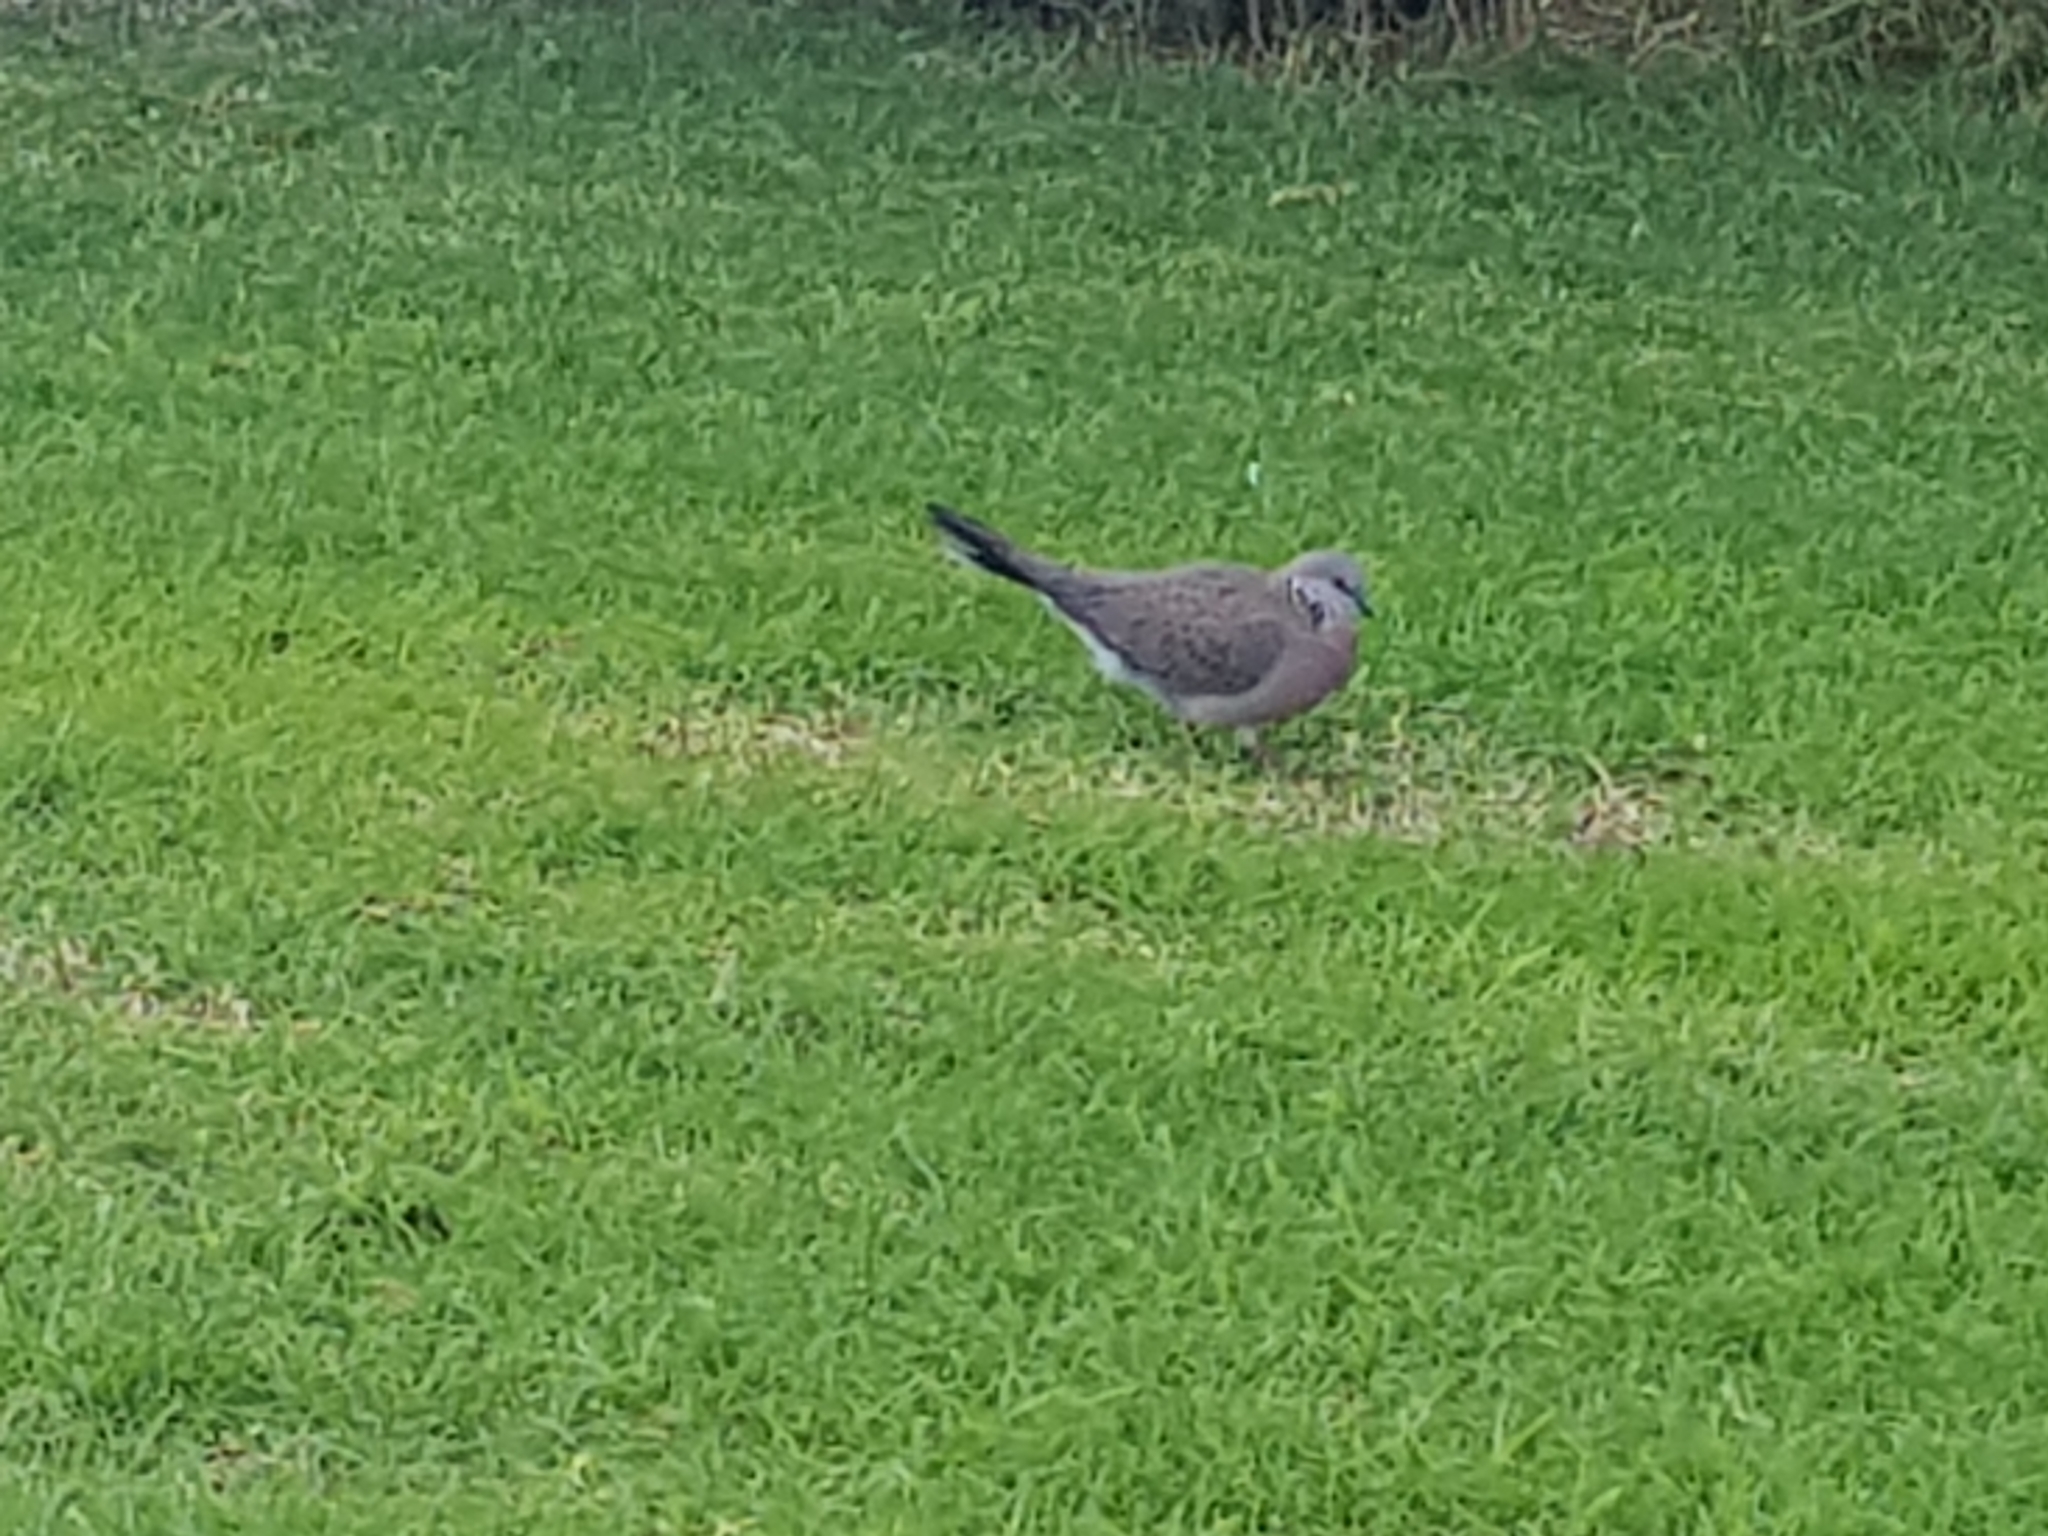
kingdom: Animalia
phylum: Chordata
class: Aves
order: Columbiformes
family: Columbidae
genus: Spilopelia
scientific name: Spilopelia chinensis
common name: Spotted dove
